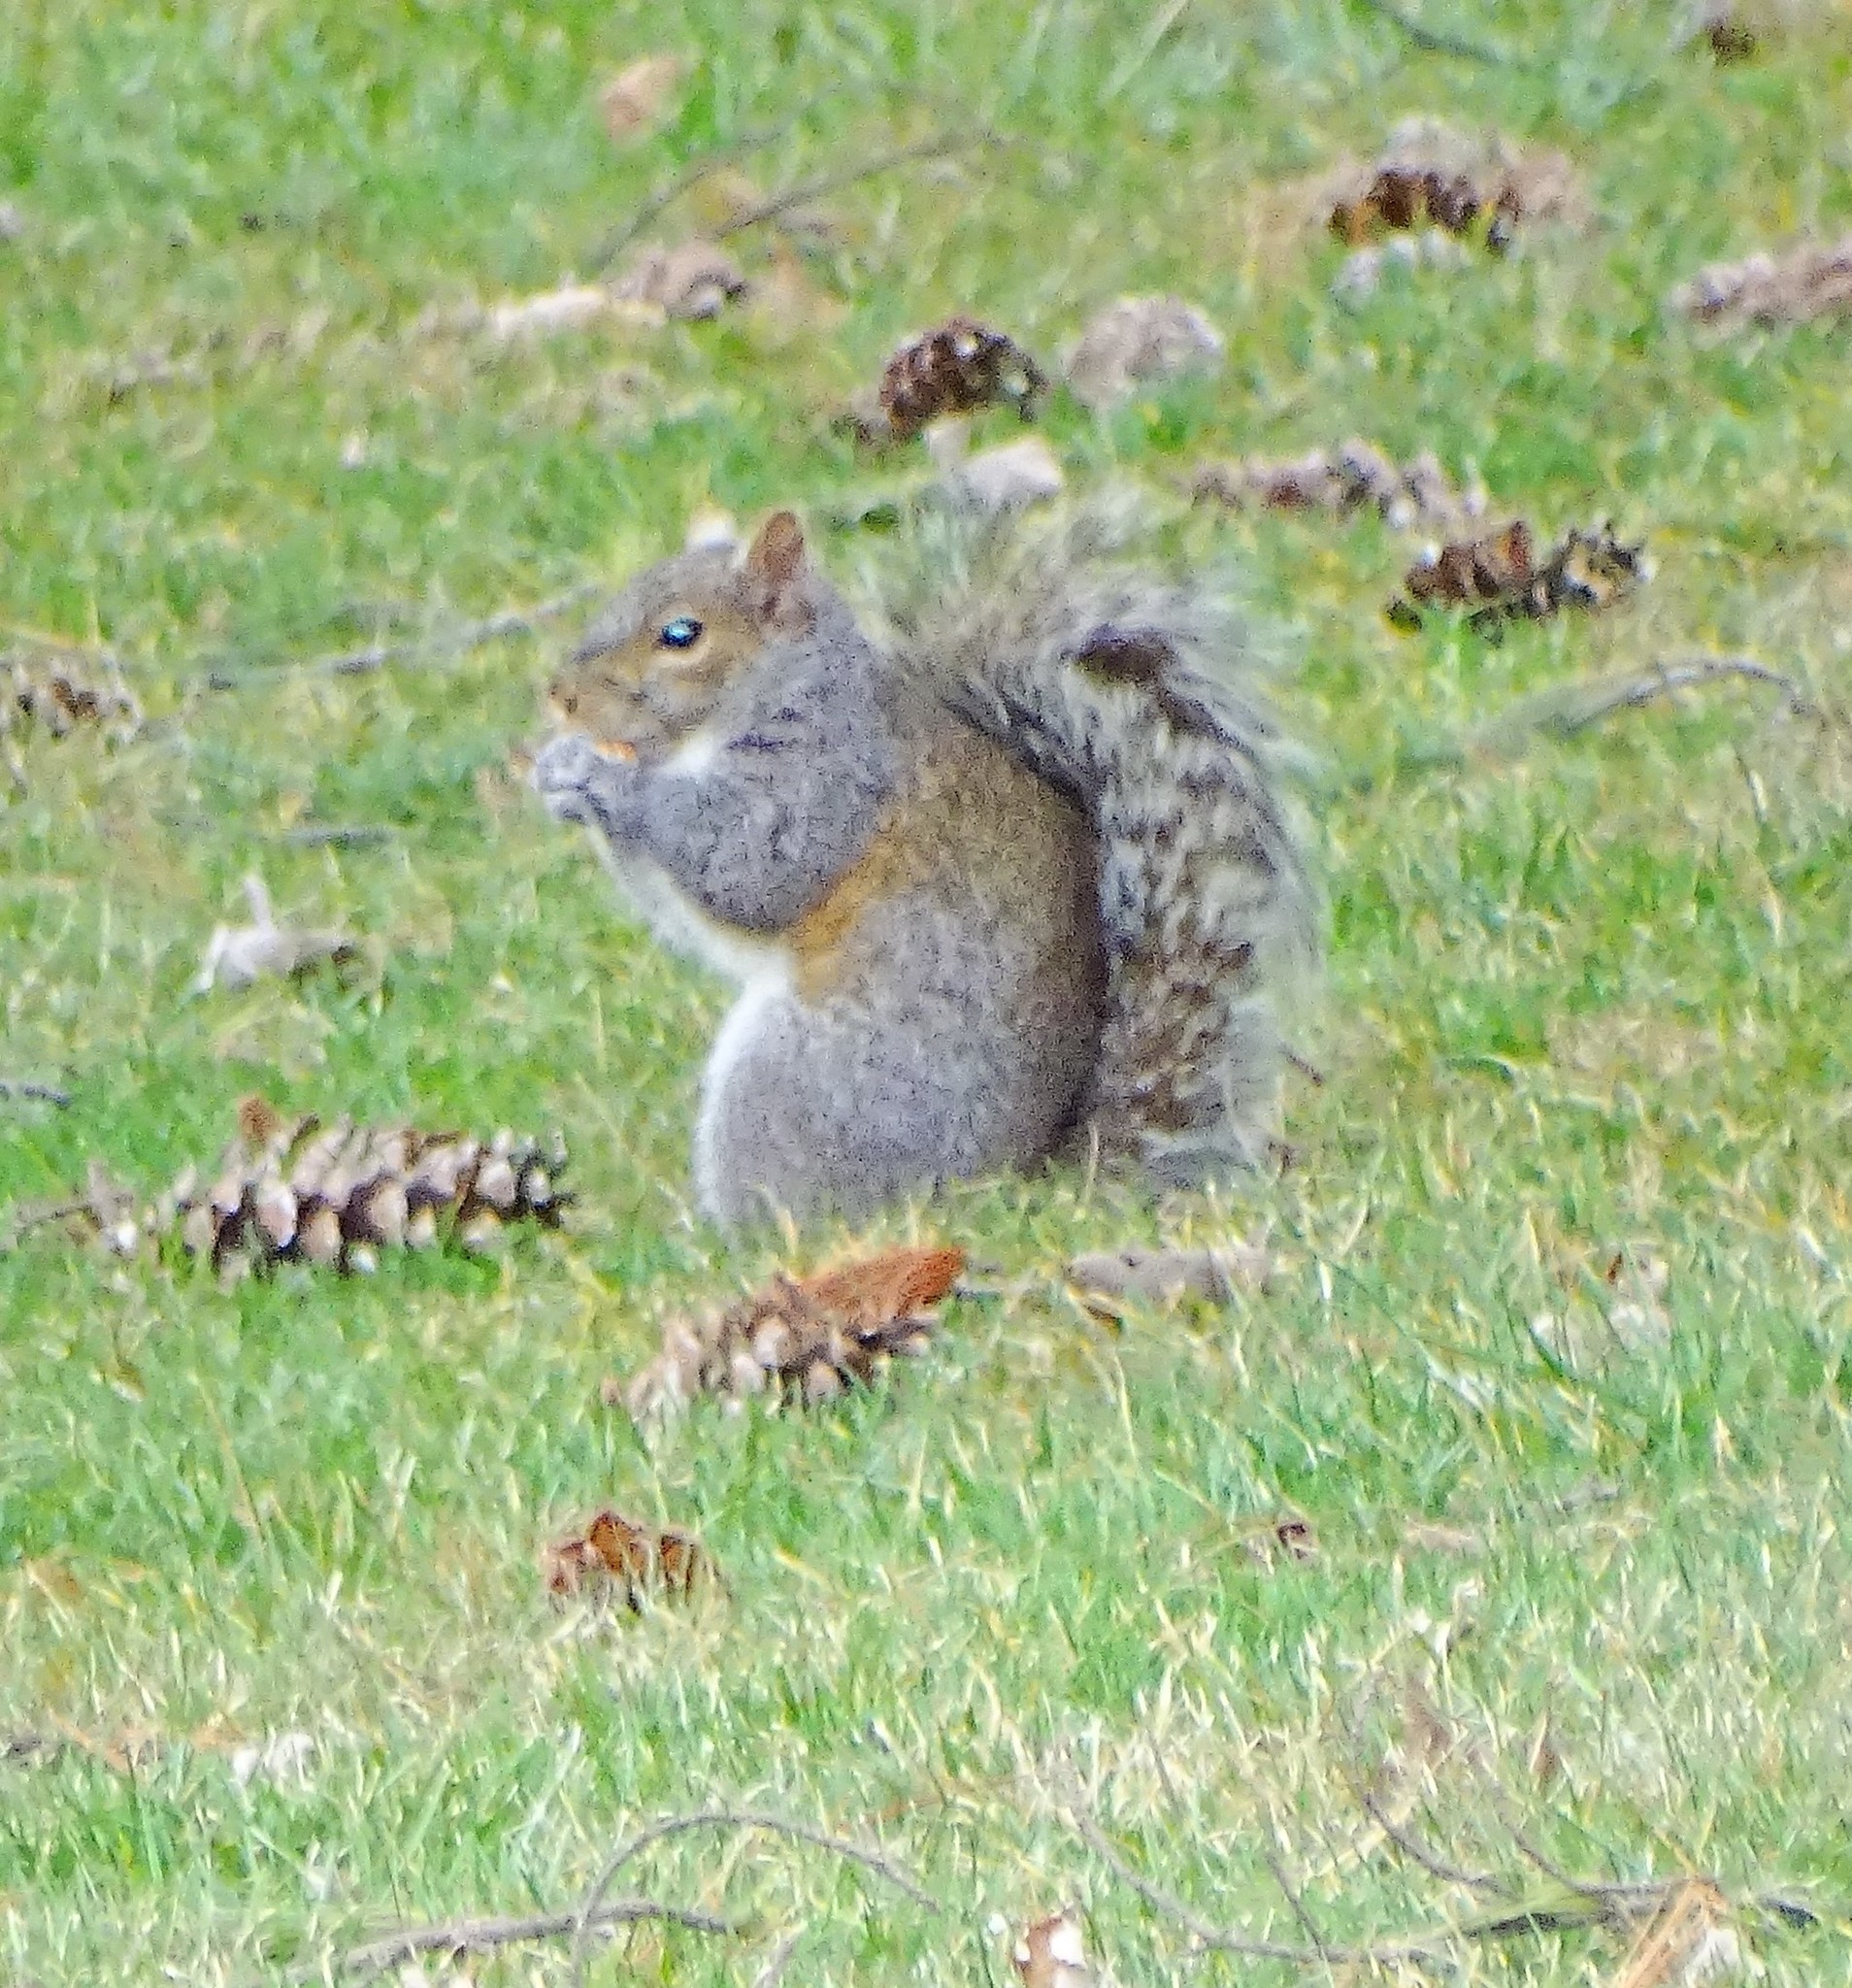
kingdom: Animalia
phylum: Chordata
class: Mammalia
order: Rodentia
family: Sciuridae
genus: Sciurus
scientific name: Sciurus carolinensis
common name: Eastern gray squirrel
